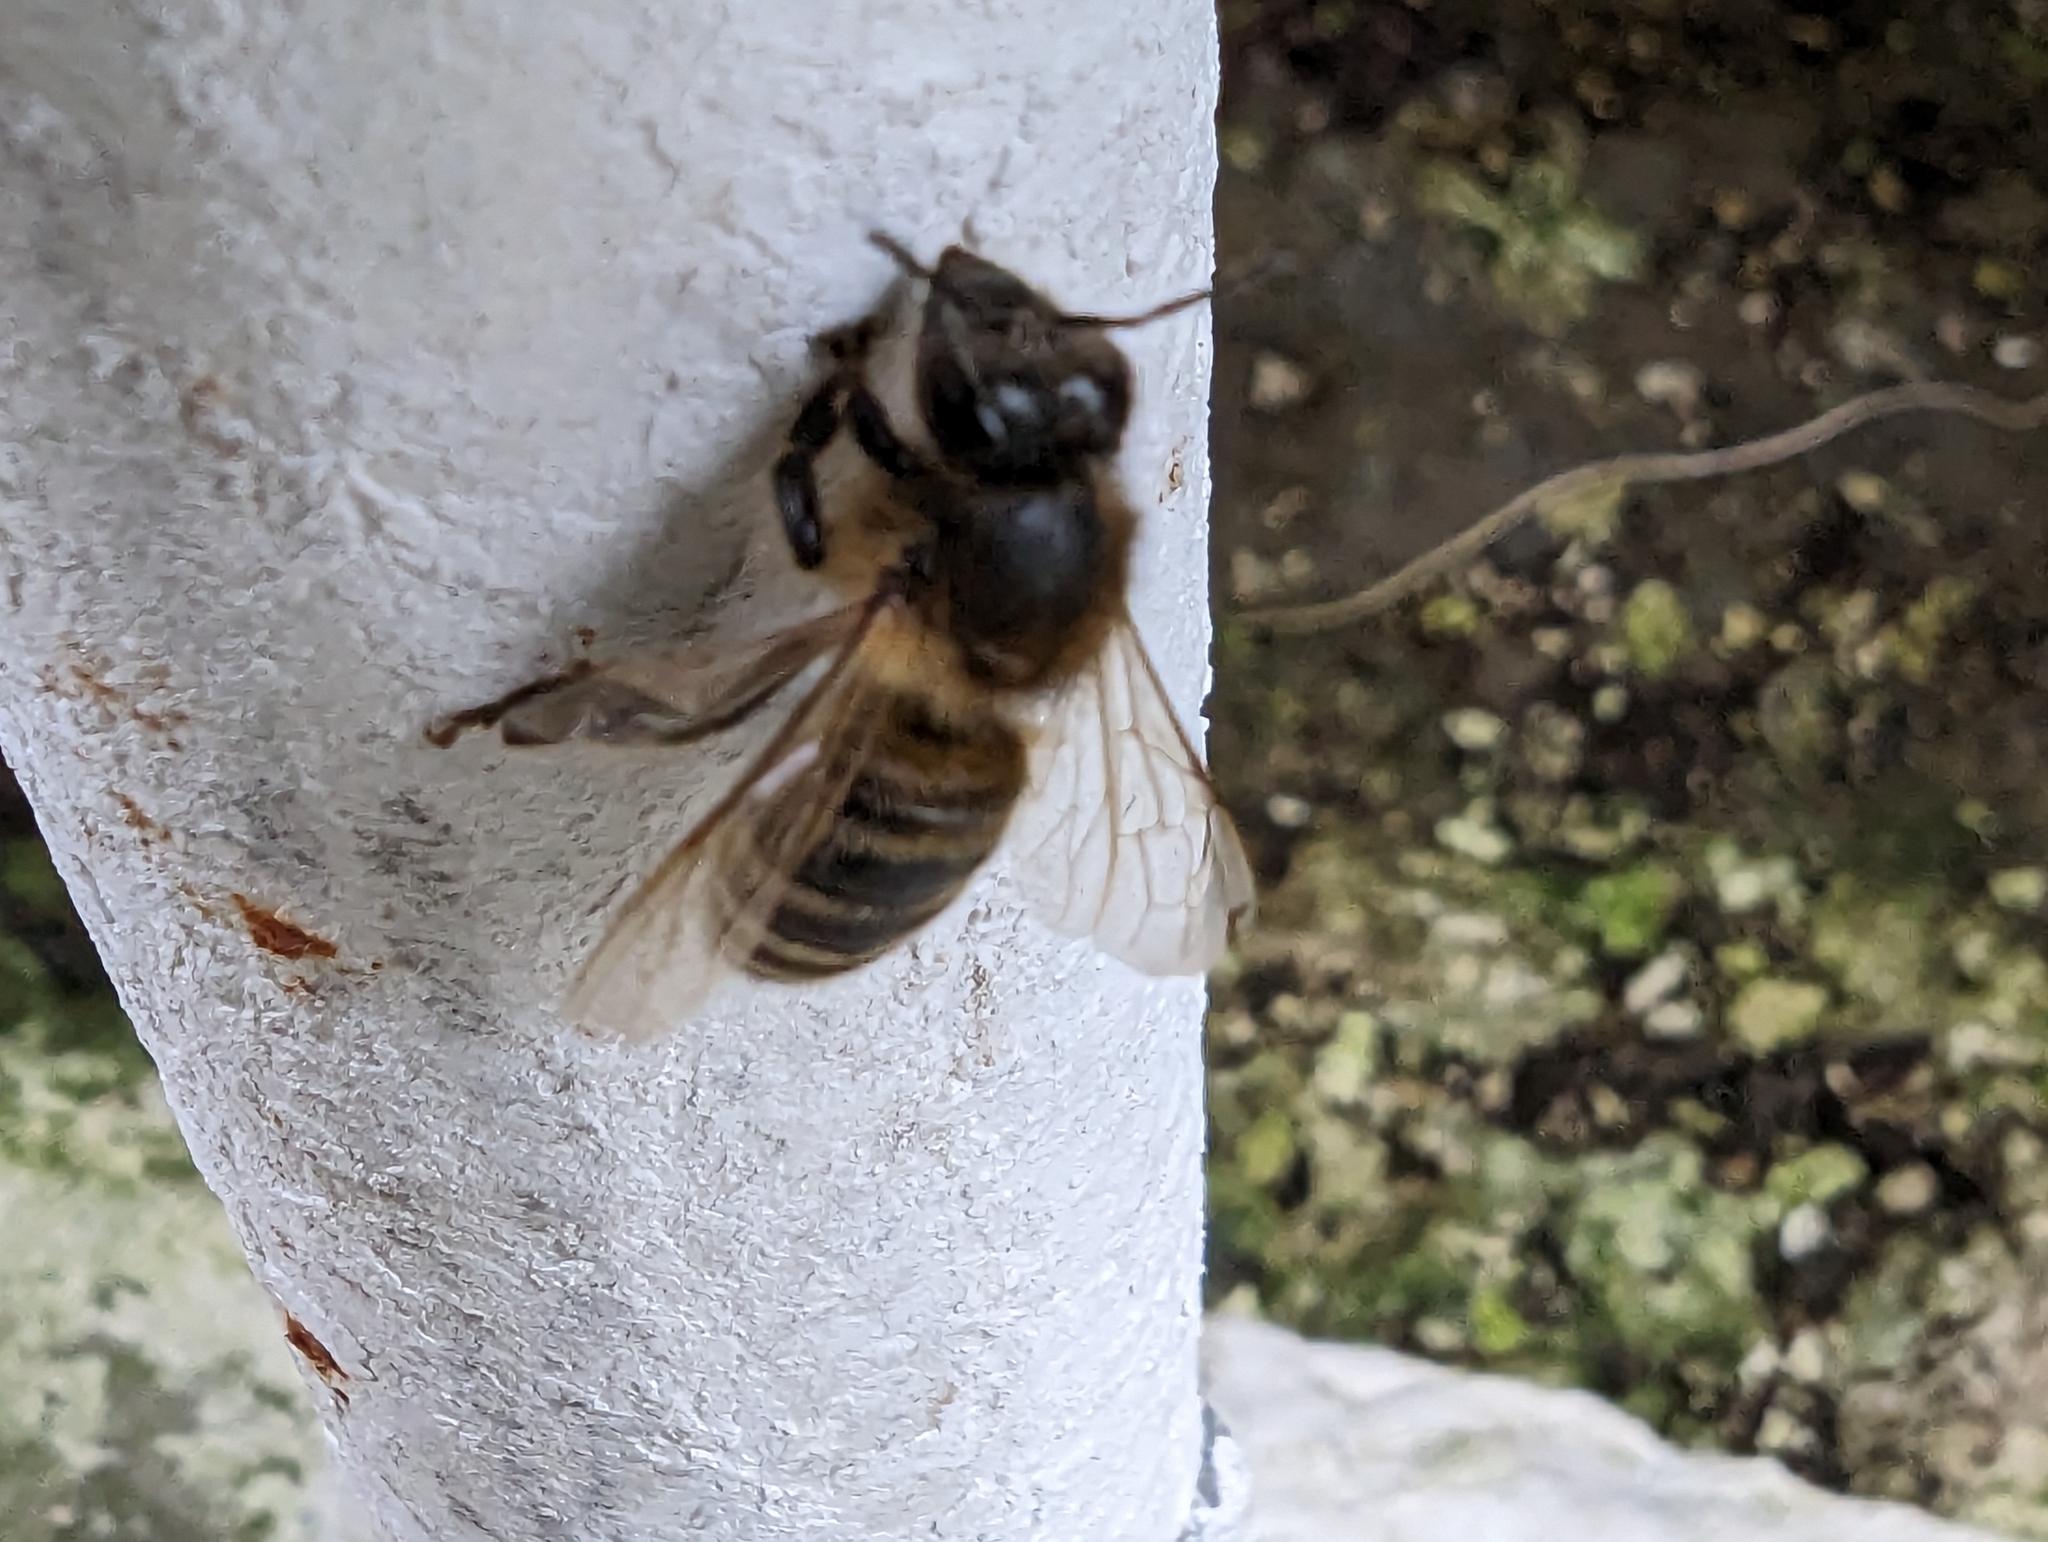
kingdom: Animalia
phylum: Arthropoda
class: Insecta
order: Hymenoptera
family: Apidae
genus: Apis
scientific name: Apis mellifera
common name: Honey bee
